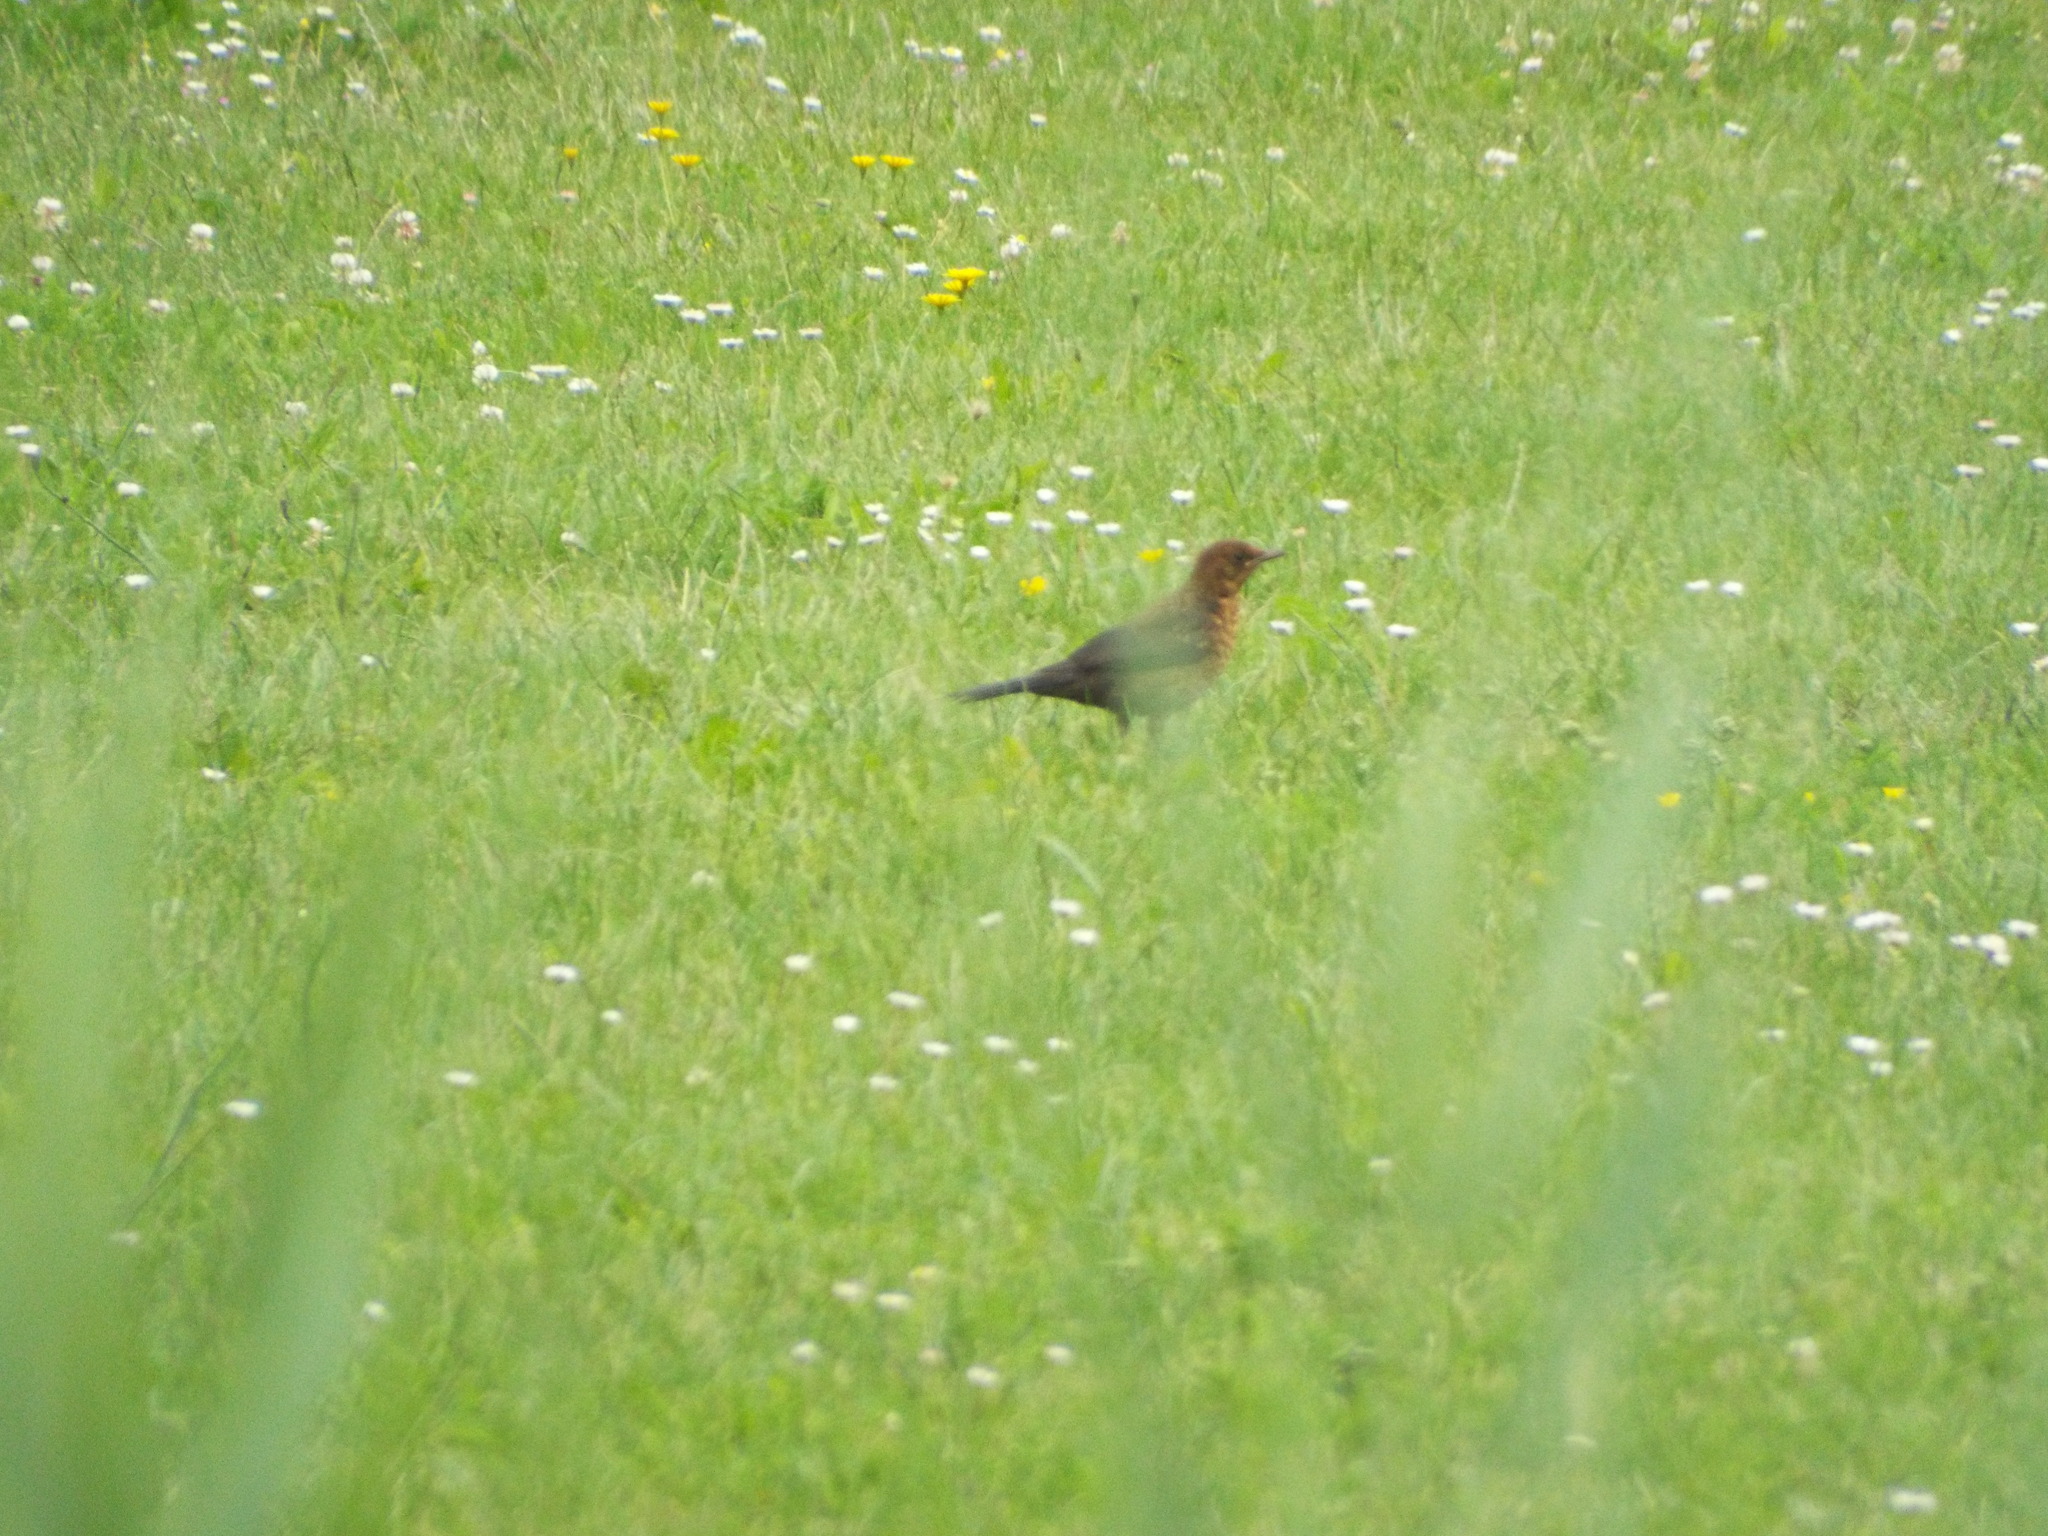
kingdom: Animalia
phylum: Chordata
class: Aves
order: Passeriformes
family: Turdidae
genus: Turdus
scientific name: Turdus merula
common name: Common blackbird
